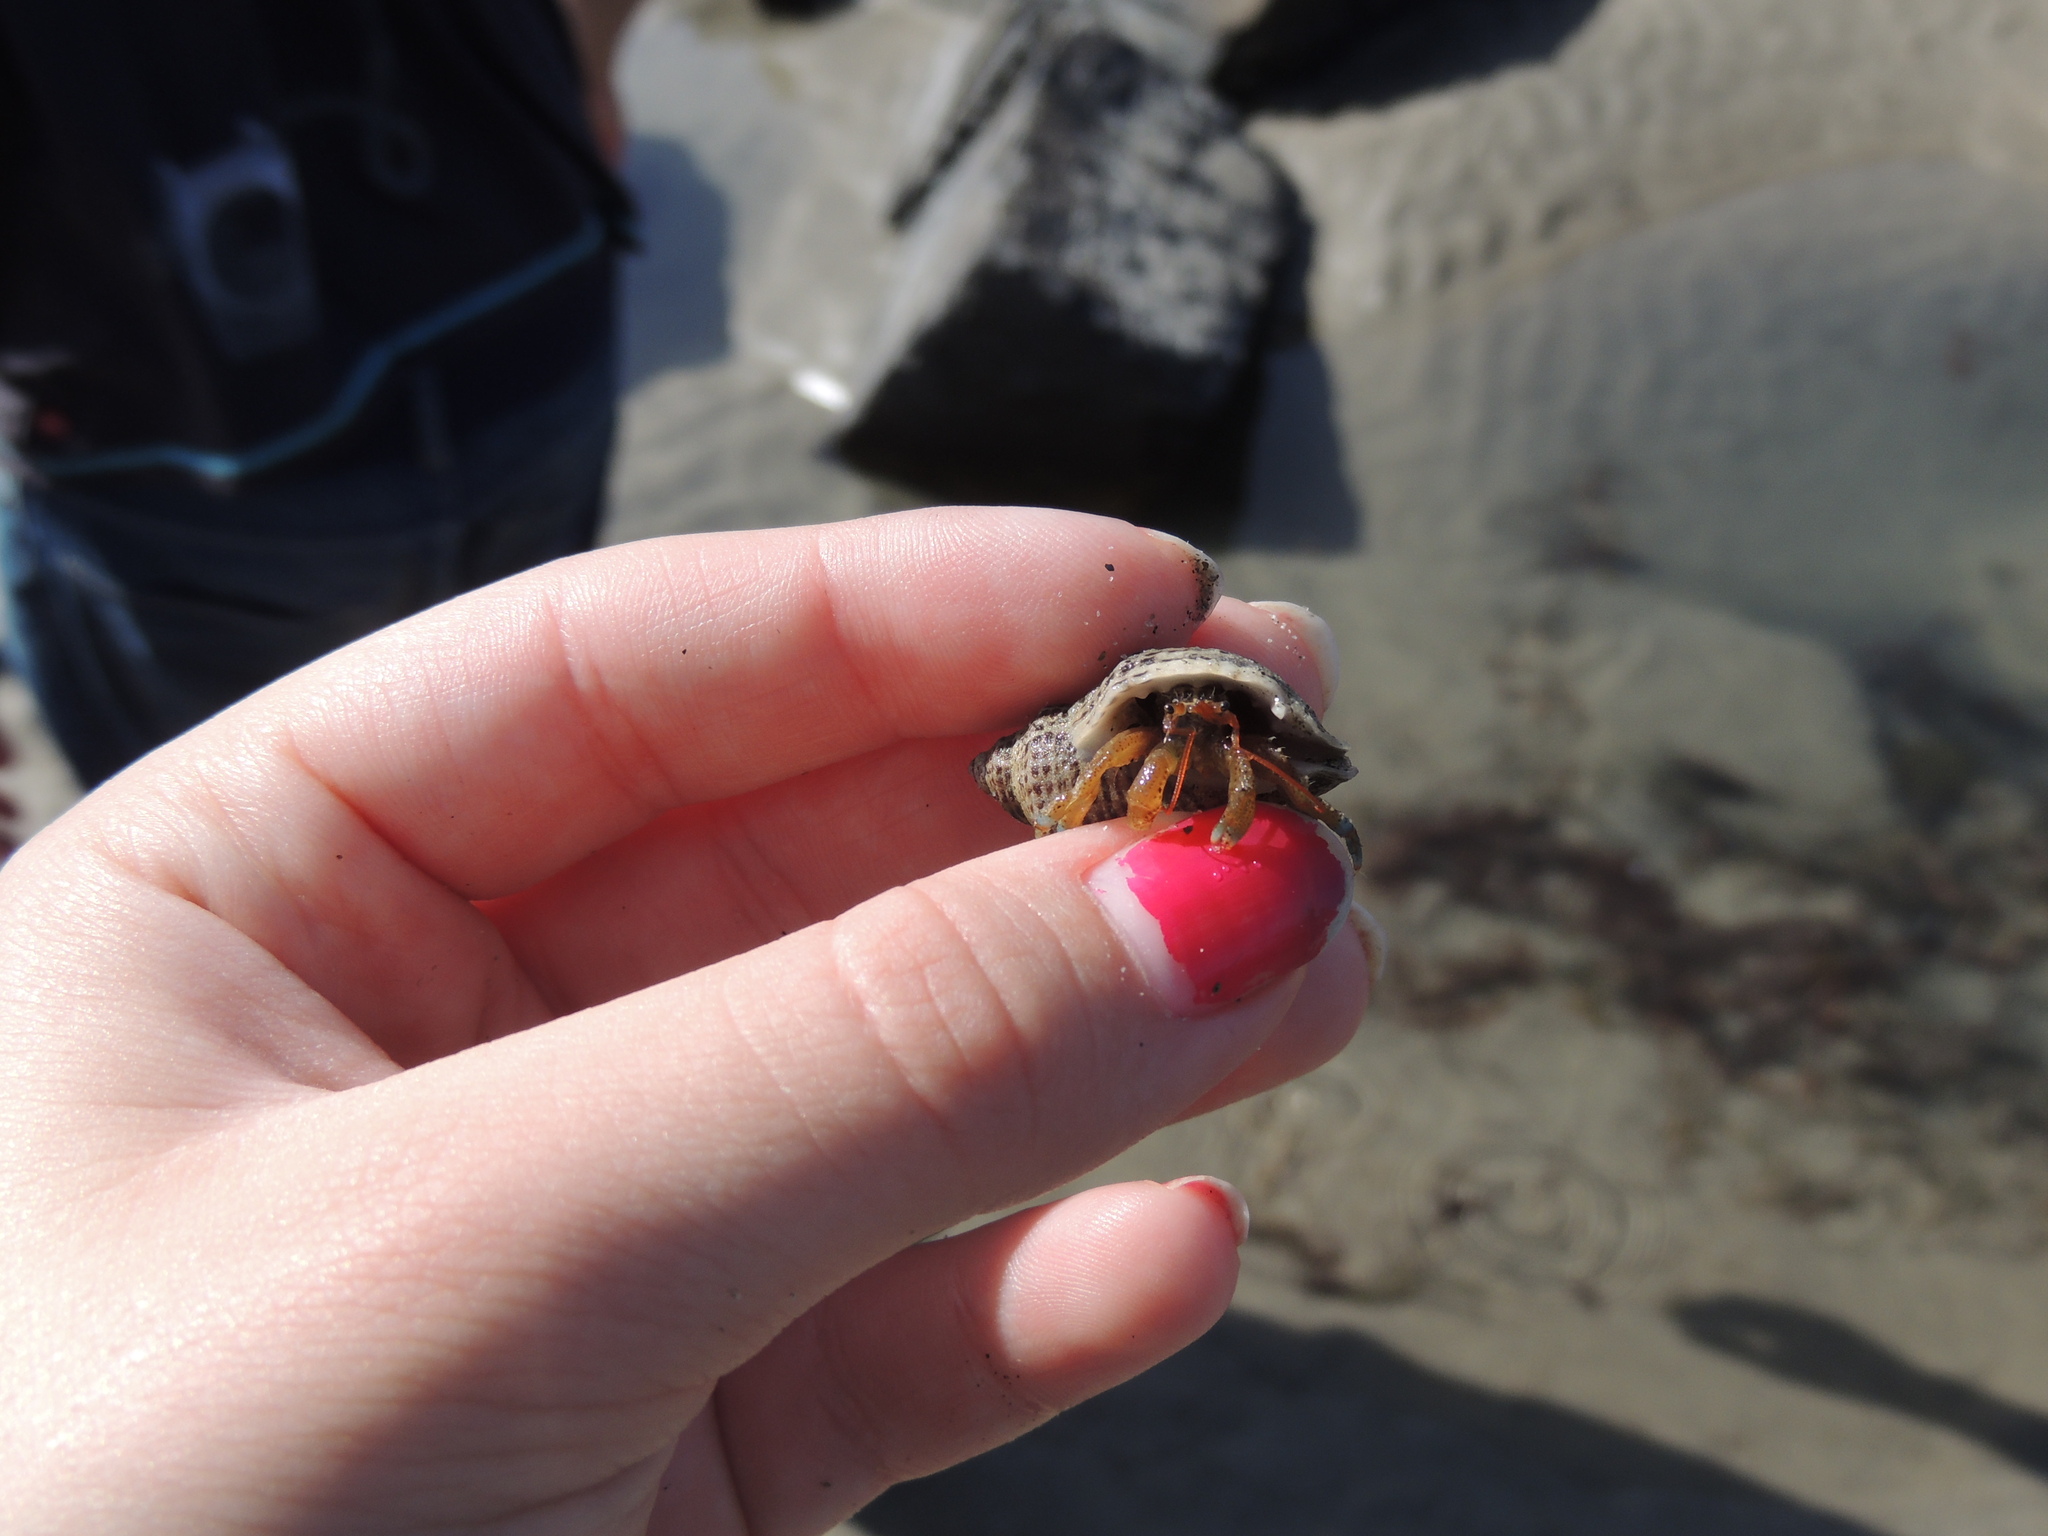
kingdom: Animalia
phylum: Mollusca
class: Gastropoda
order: Neogastropoda
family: Muricidae
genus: Acanthinucella
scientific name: Acanthinucella punctulata
